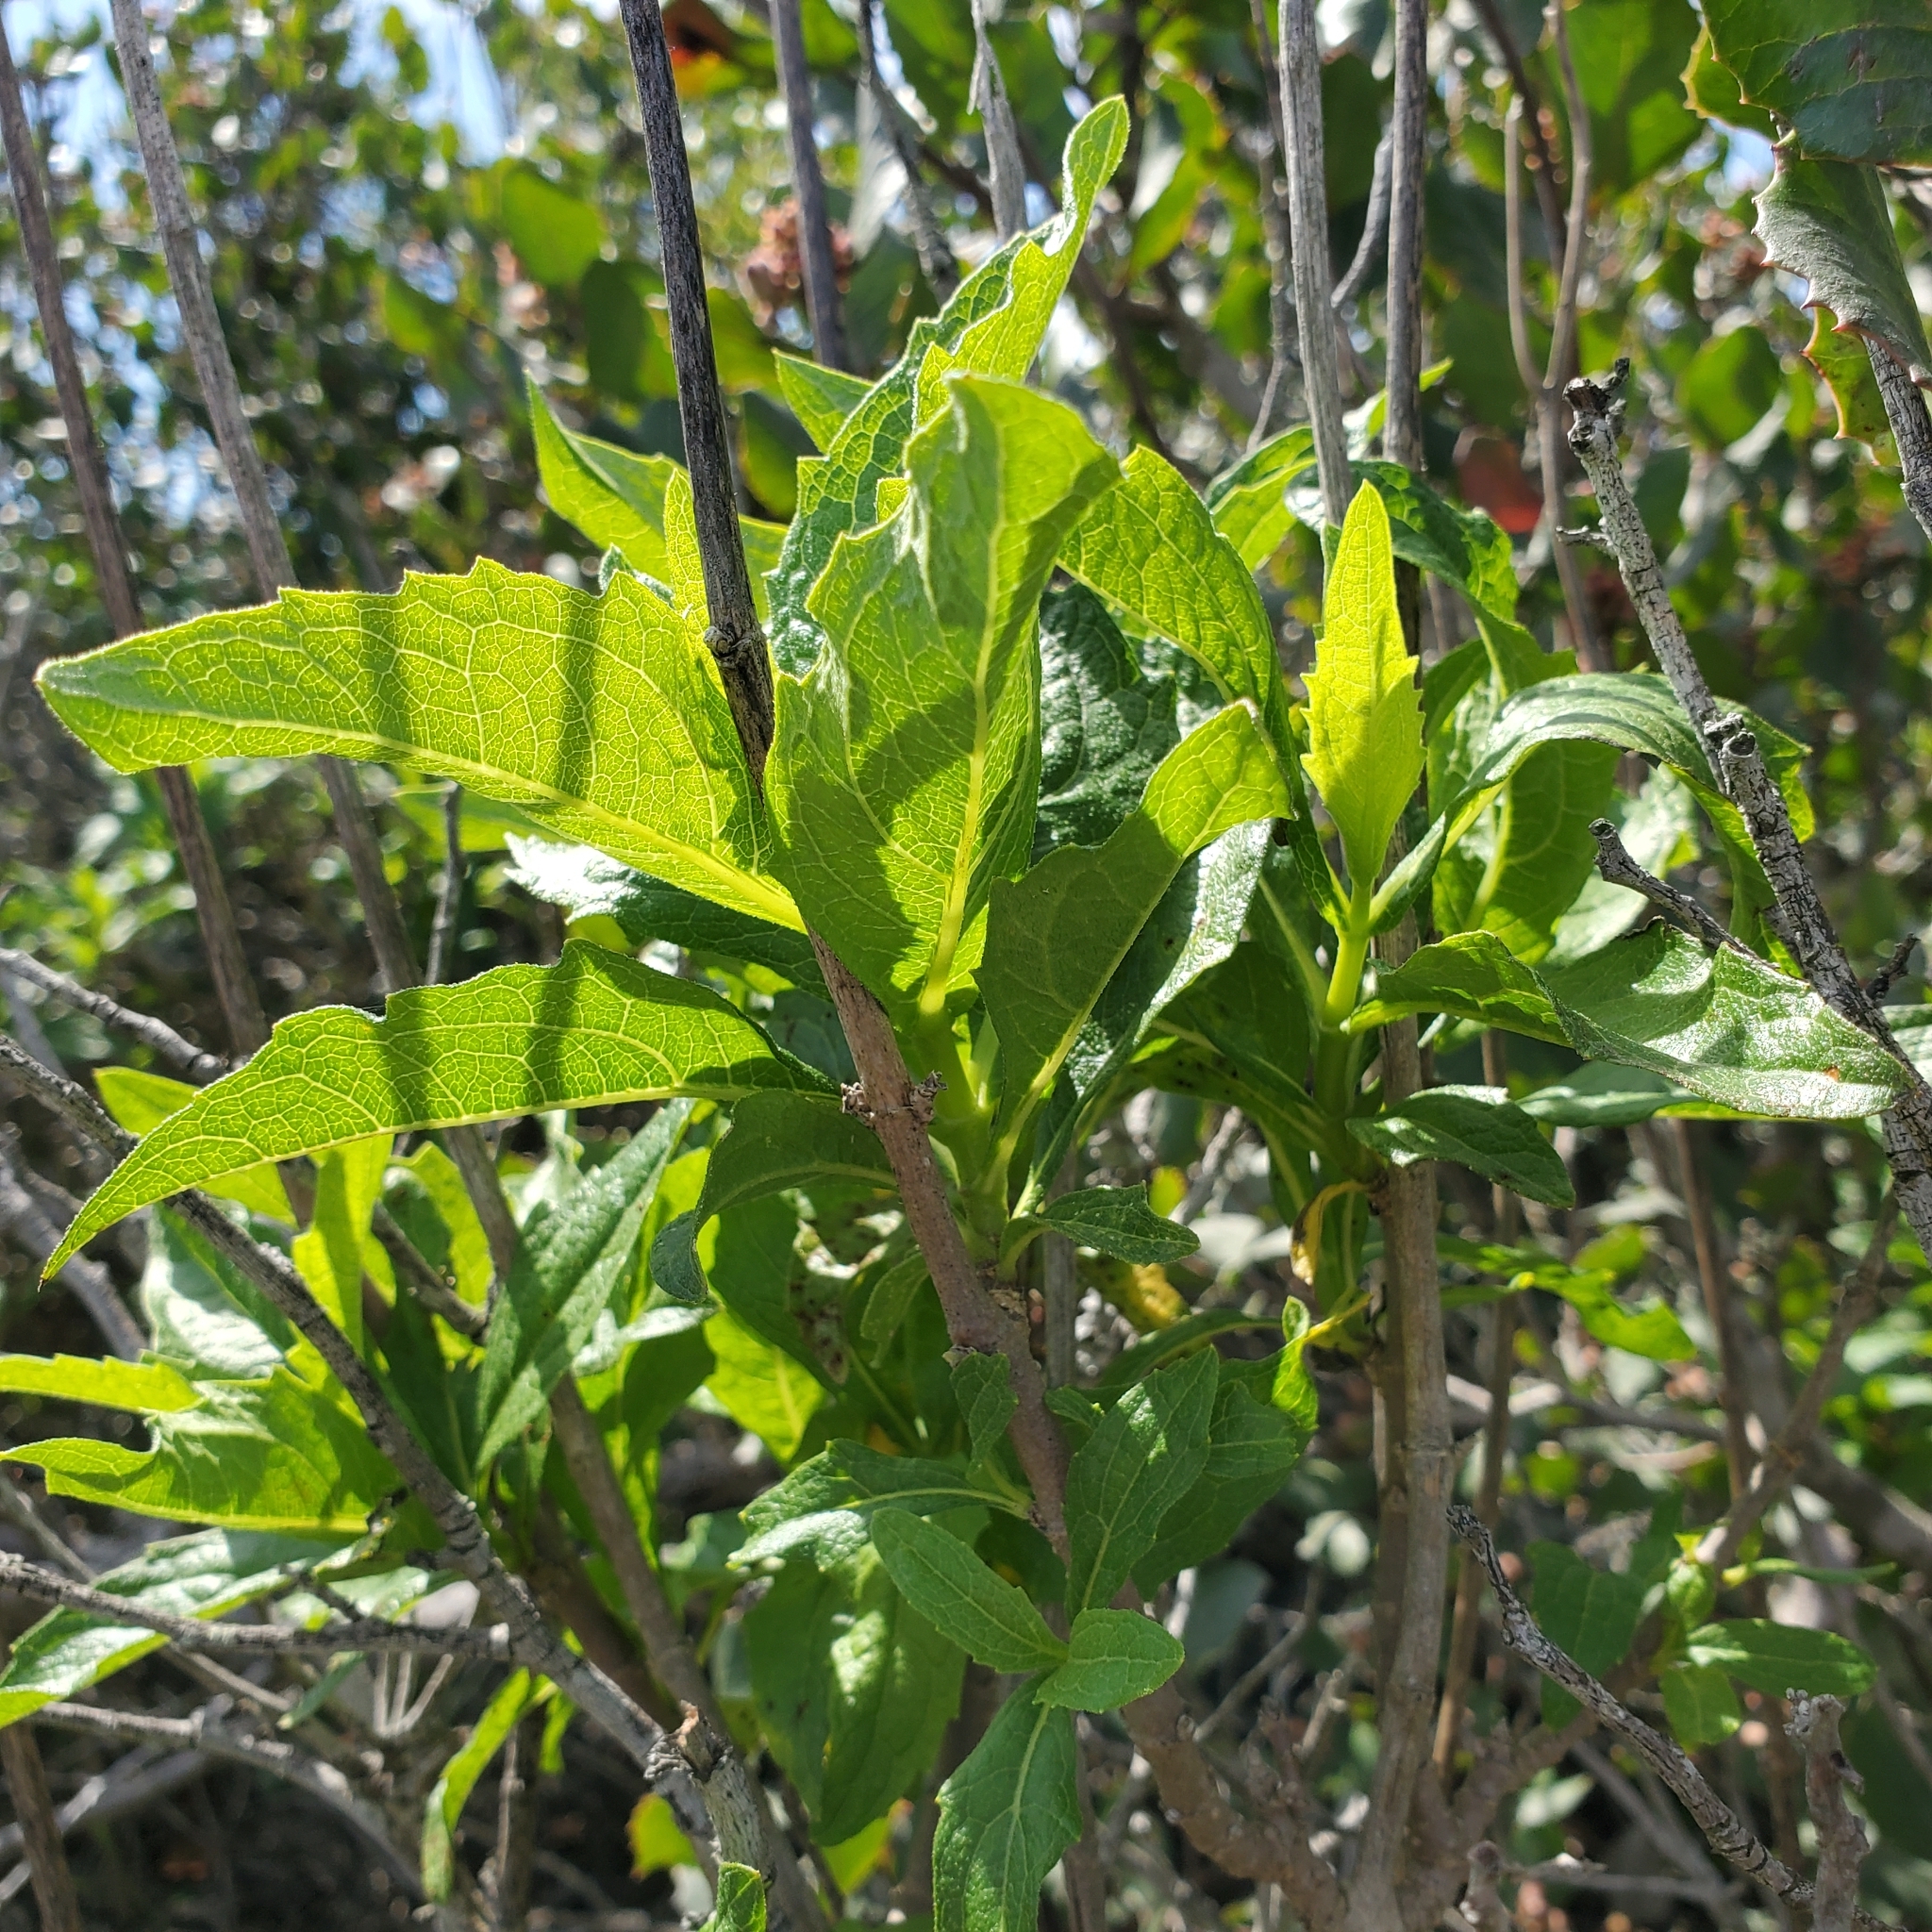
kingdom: Plantae
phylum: Tracheophyta
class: Magnoliopsida
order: Asterales
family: Asteraceae
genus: Verbesina
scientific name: Verbesina dissita
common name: Big-leaf crownbeard
